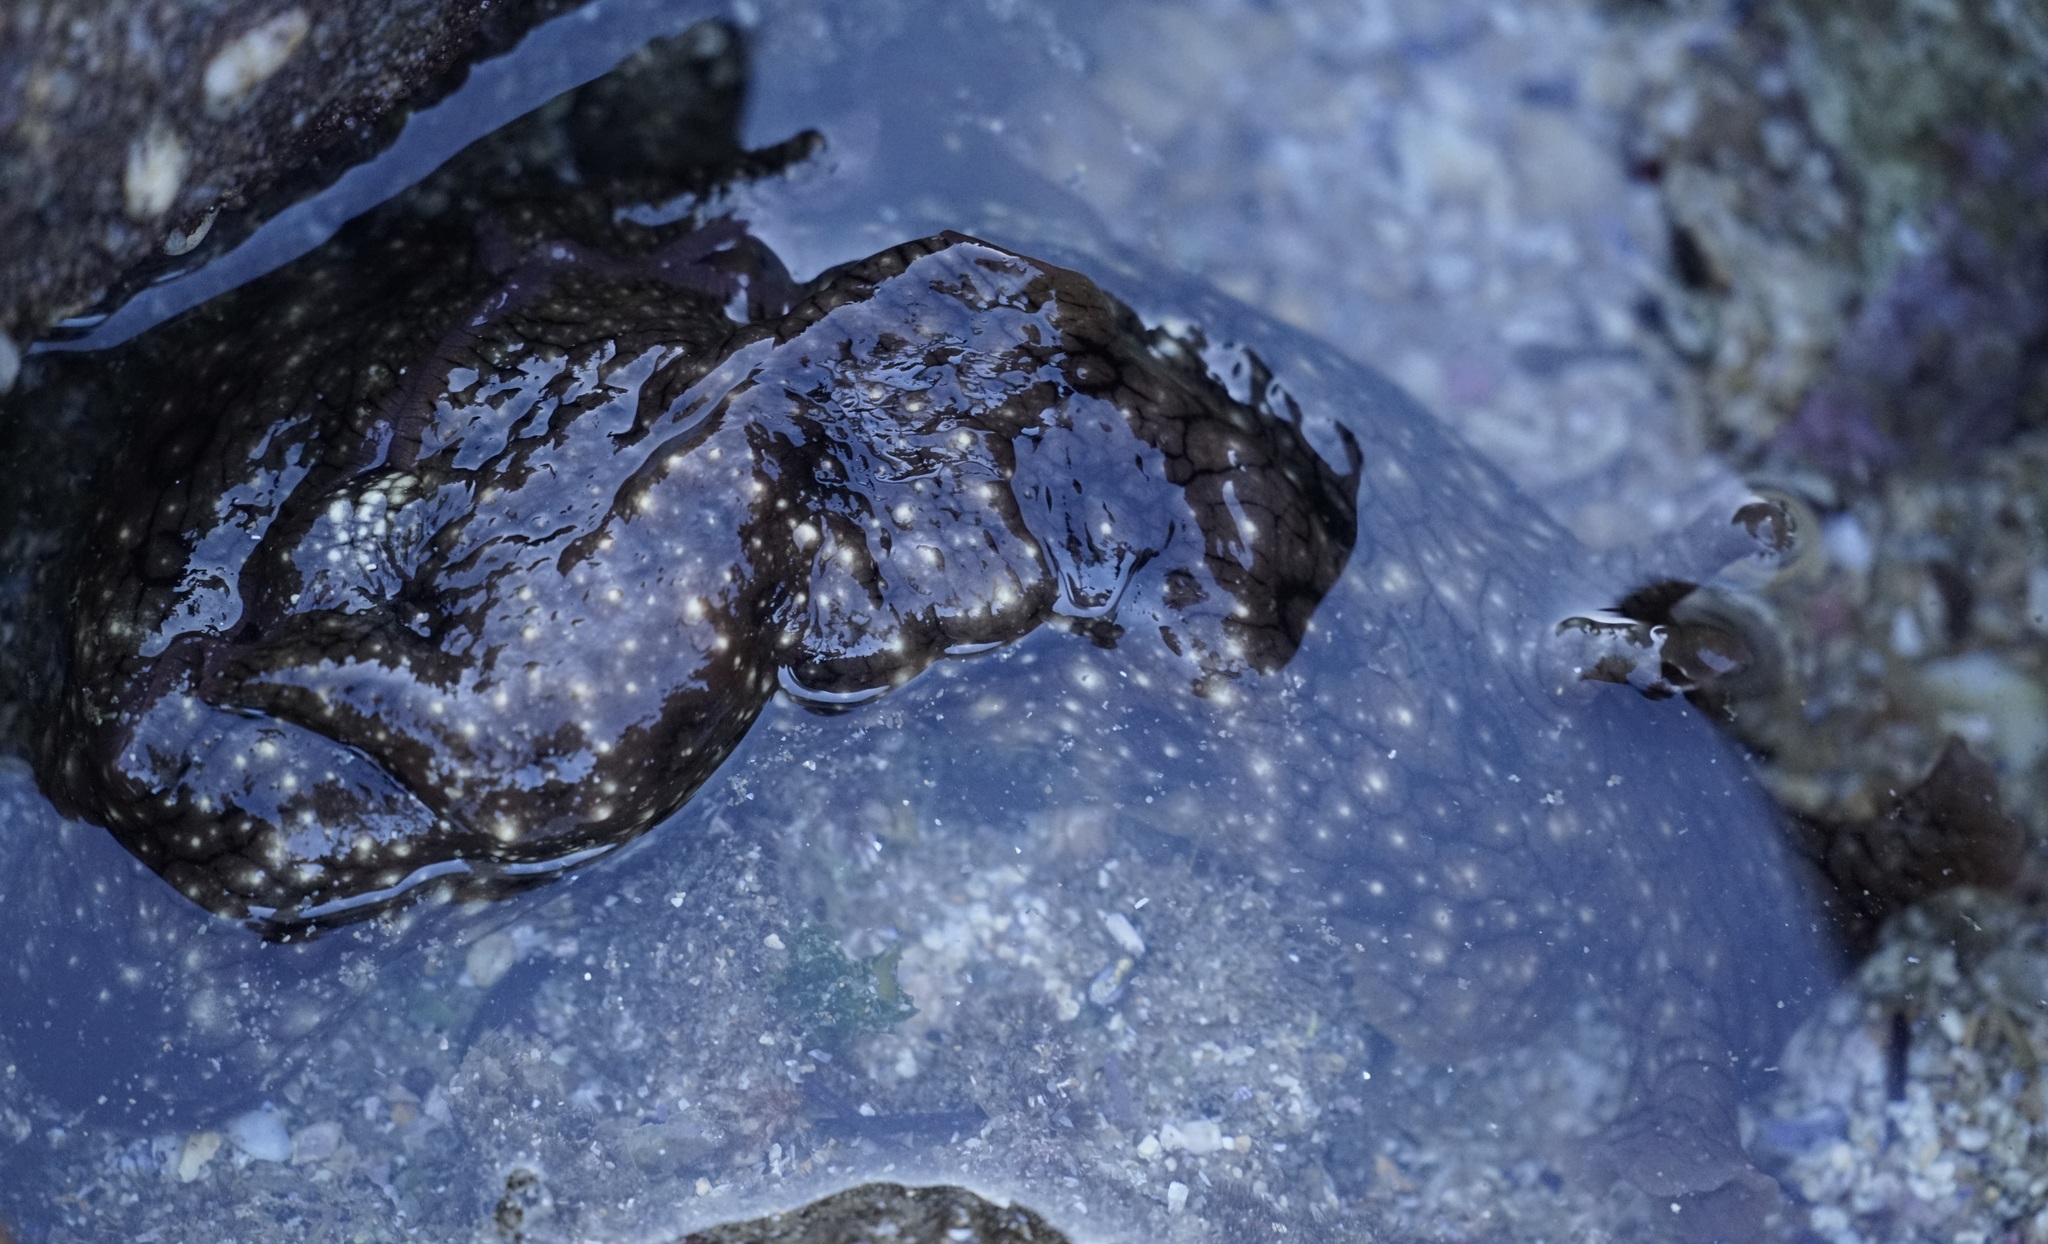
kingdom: Animalia
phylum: Mollusca
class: Gastropoda
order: Aplysiida
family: Aplysiidae
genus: Aplysia
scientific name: Aplysia argus
